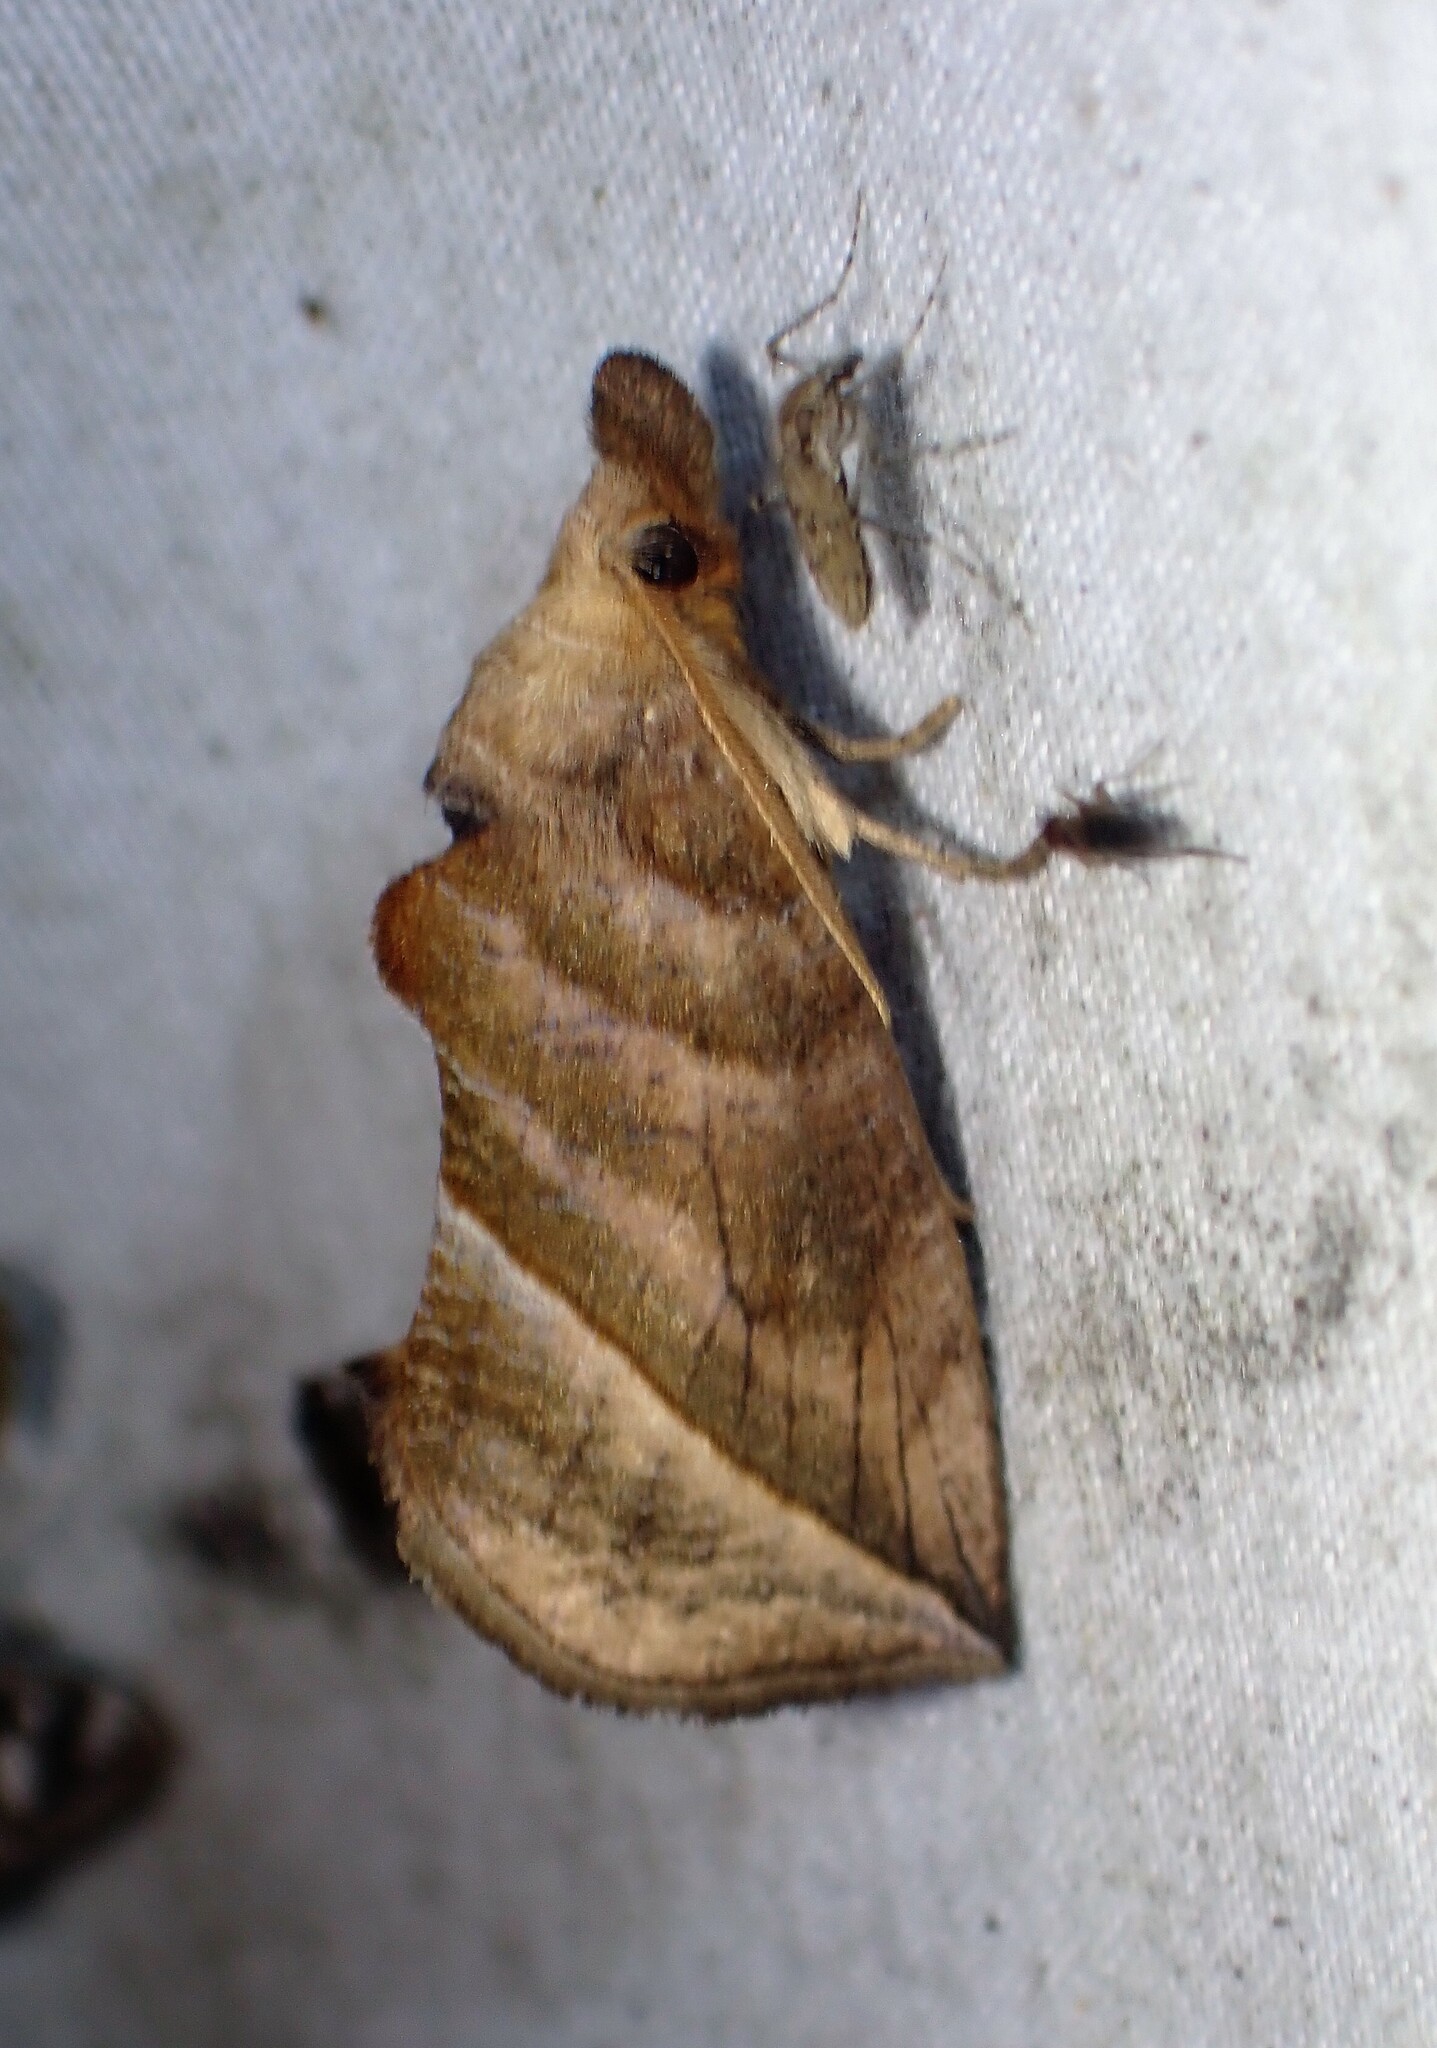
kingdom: Animalia
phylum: Arthropoda
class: Insecta
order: Lepidoptera
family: Erebidae
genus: Calyptra
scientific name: Calyptra canadensis
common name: Canadian owlet
